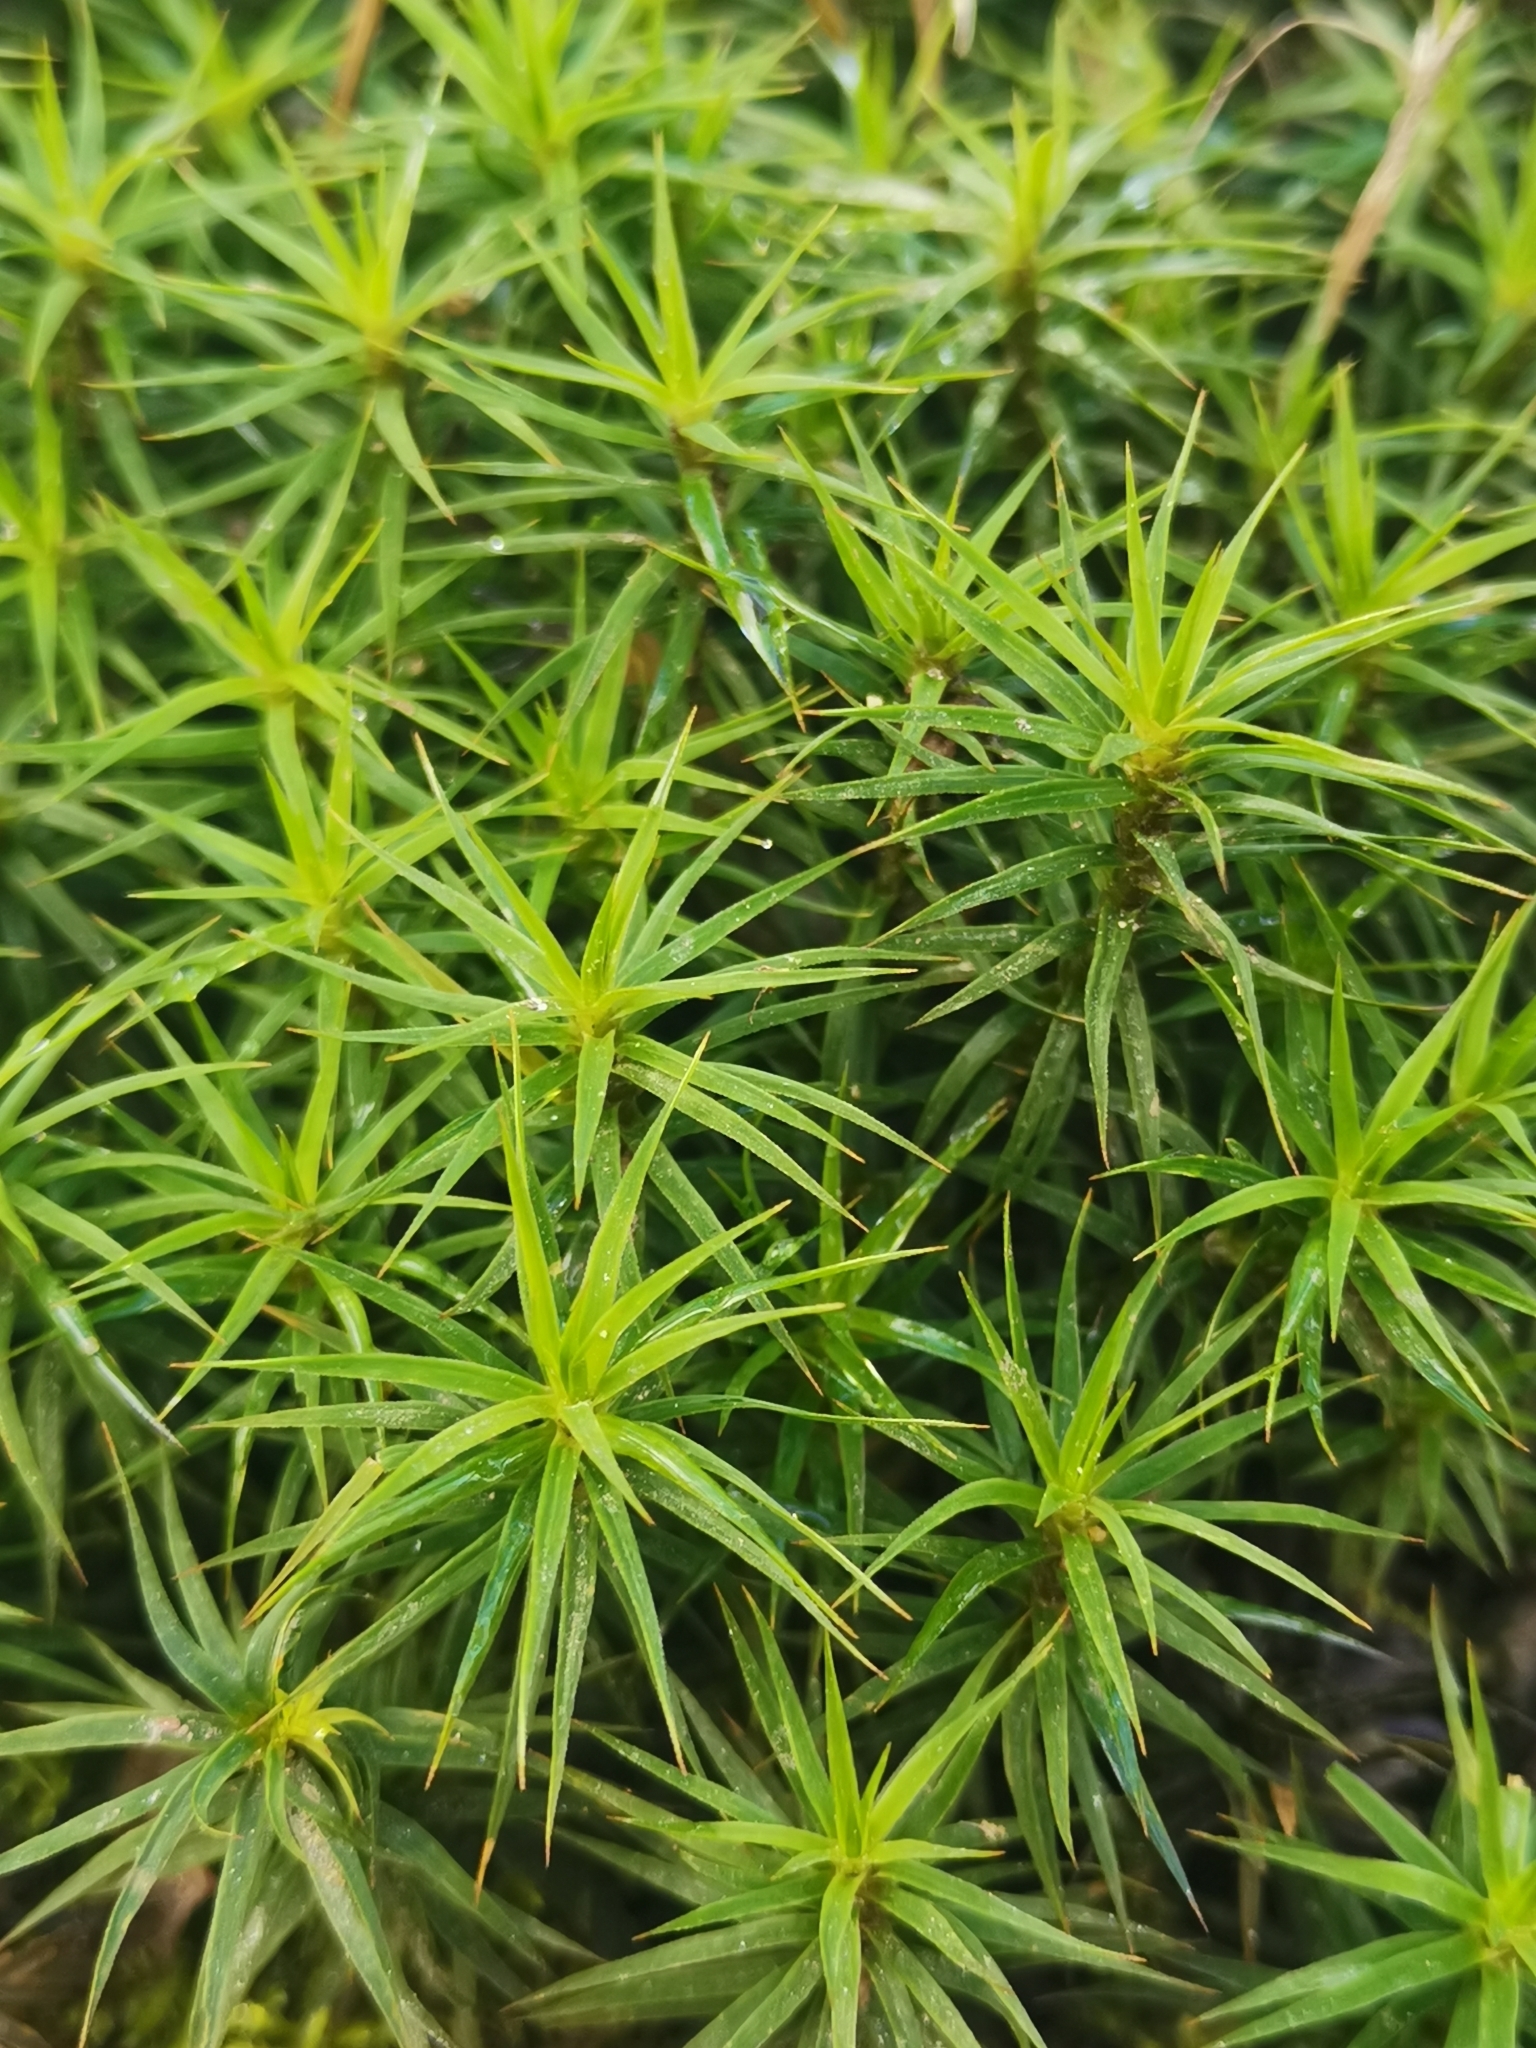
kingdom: Plantae
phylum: Bryophyta
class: Polytrichopsida
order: Polytrichales
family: Polytrichaceae
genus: Polytrichum
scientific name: Polytrichum formosum
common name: Bank haircap moss
